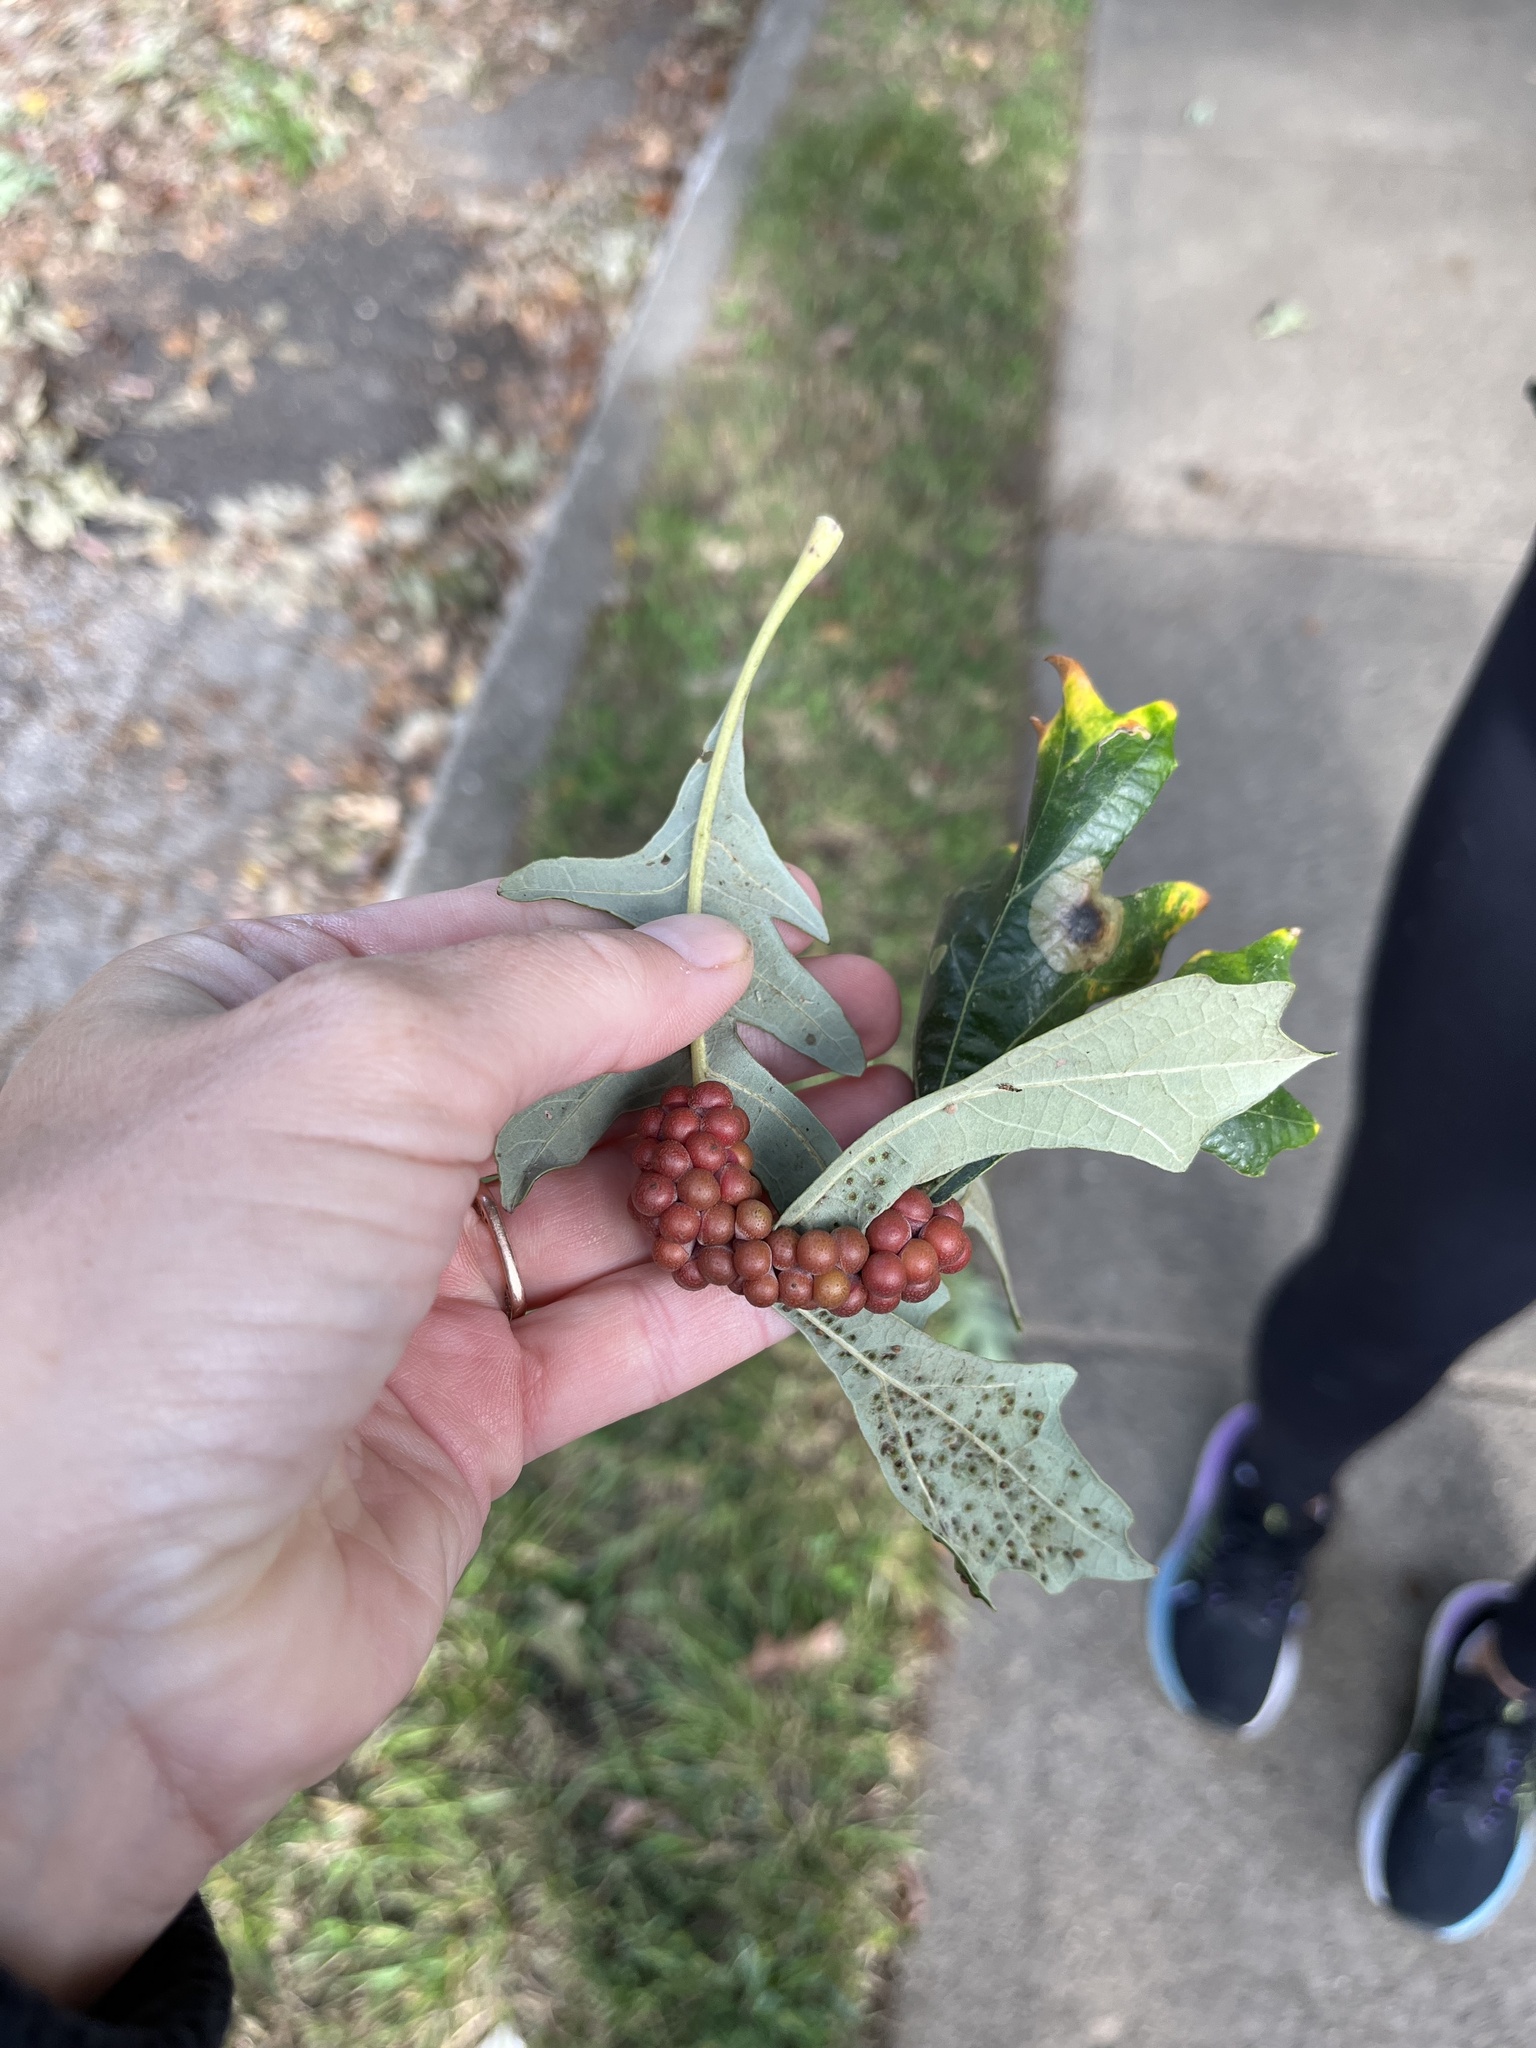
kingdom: Animalia
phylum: Arthropoda
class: Insecta
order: Hymenoptera
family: Cynipidae
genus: Andricus
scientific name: Andricus
